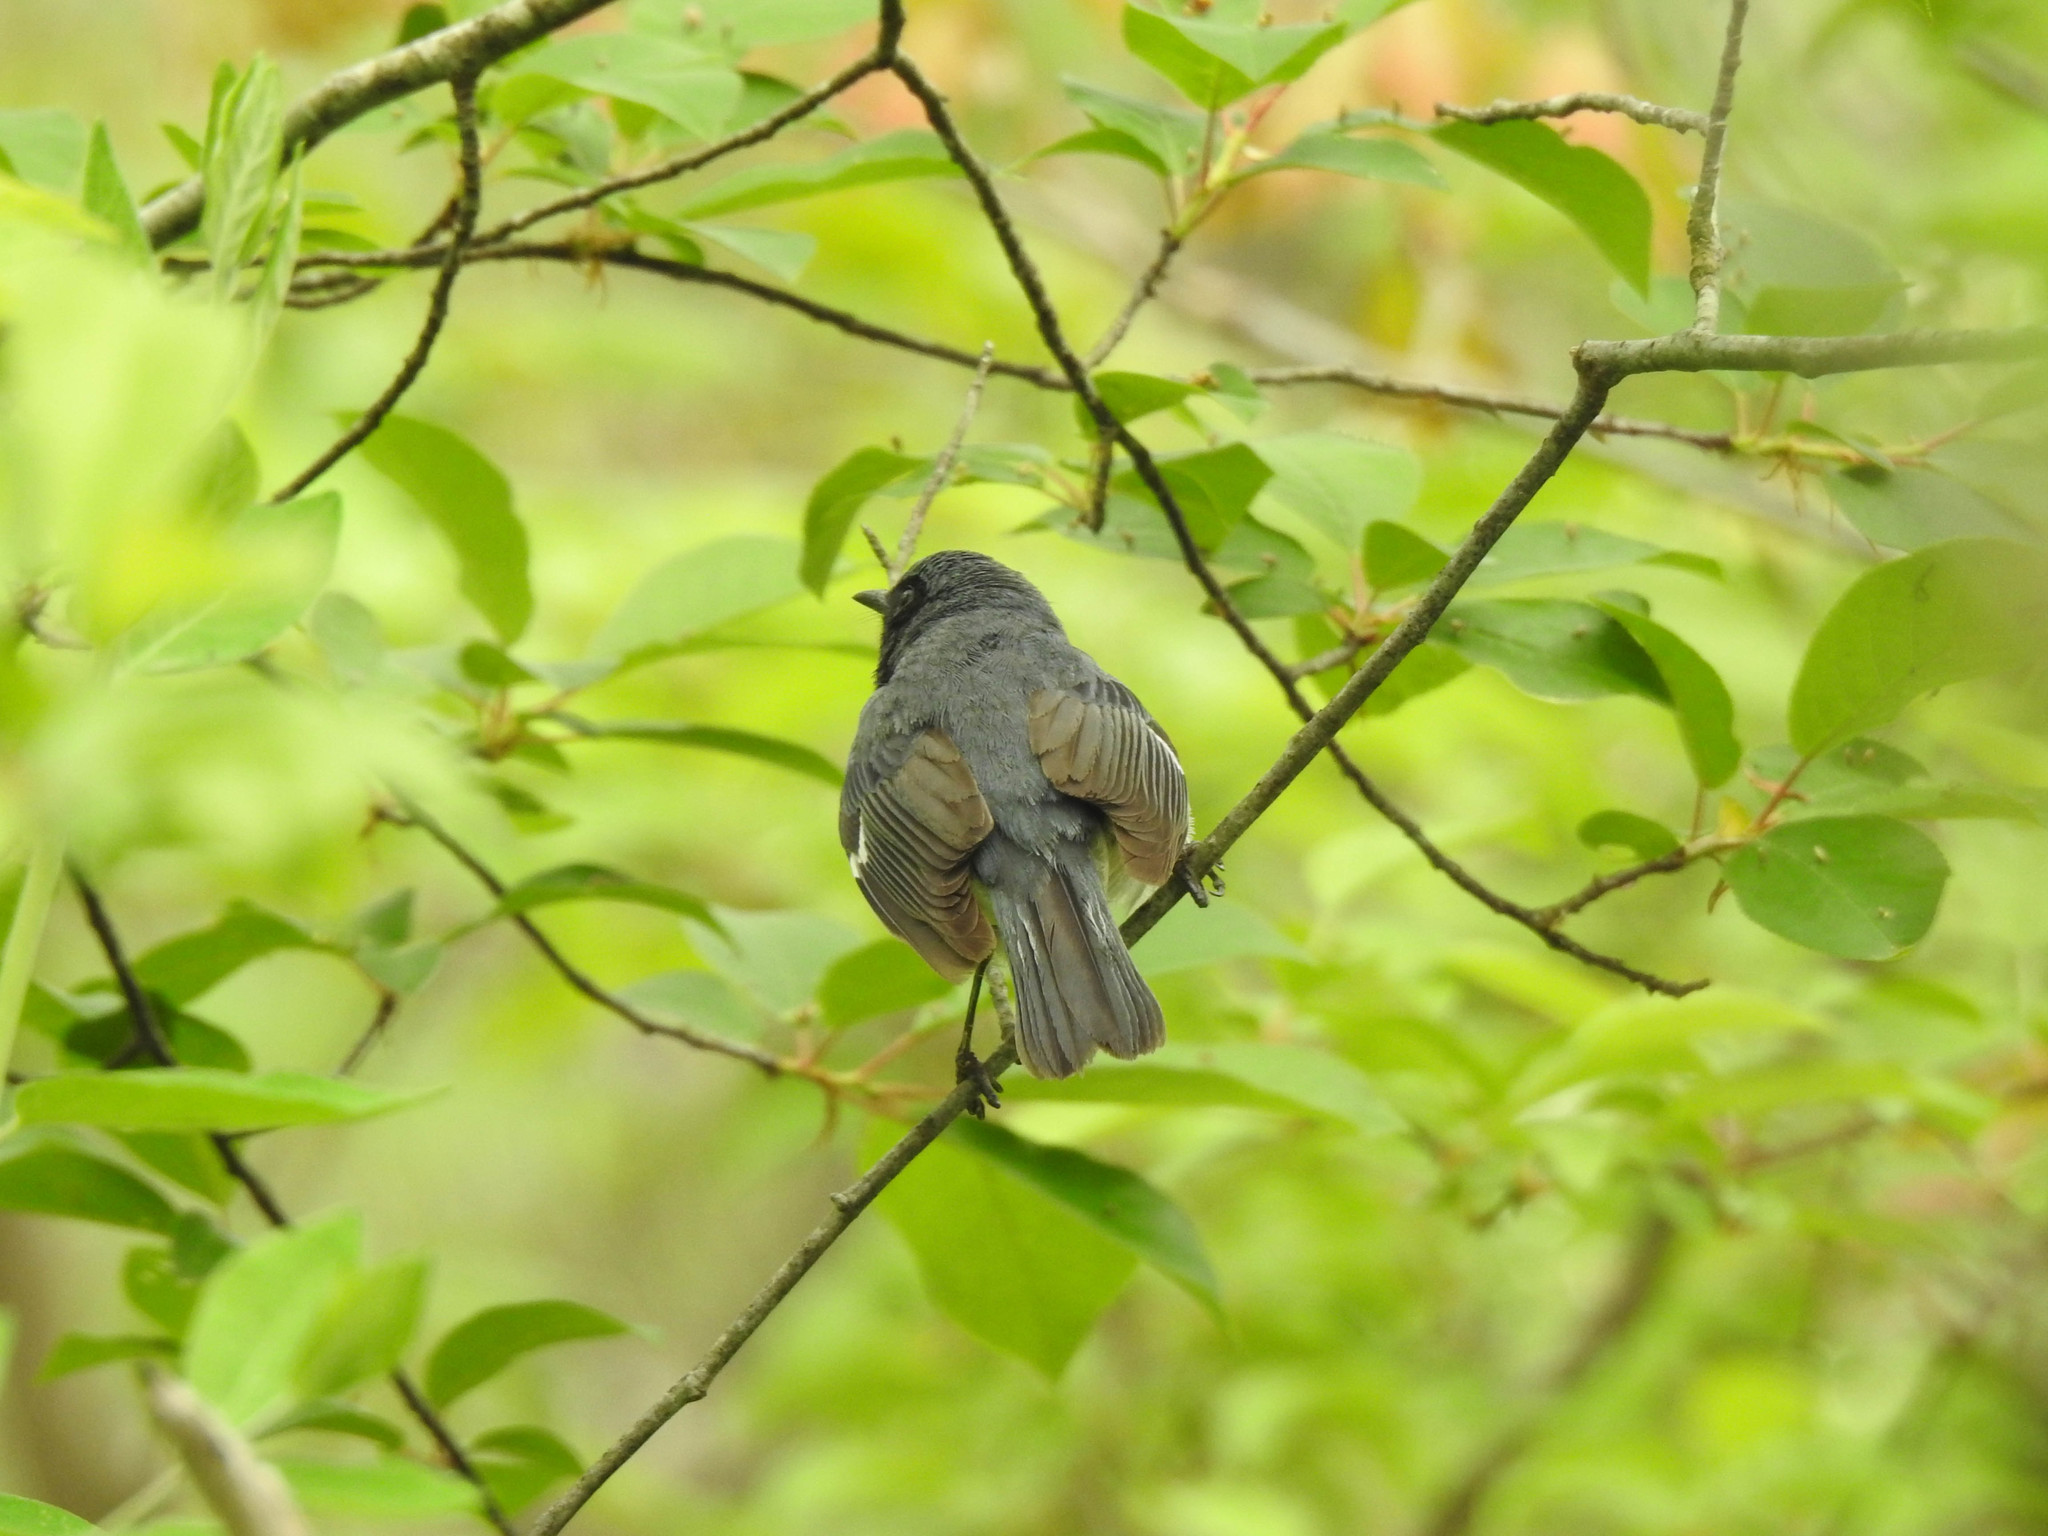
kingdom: Animalia
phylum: Chordata
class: Aves
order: Passeriformes
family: Parulidae
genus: Setophaga
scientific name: Setophaga caerulescens
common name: Black-throated blue warbler
